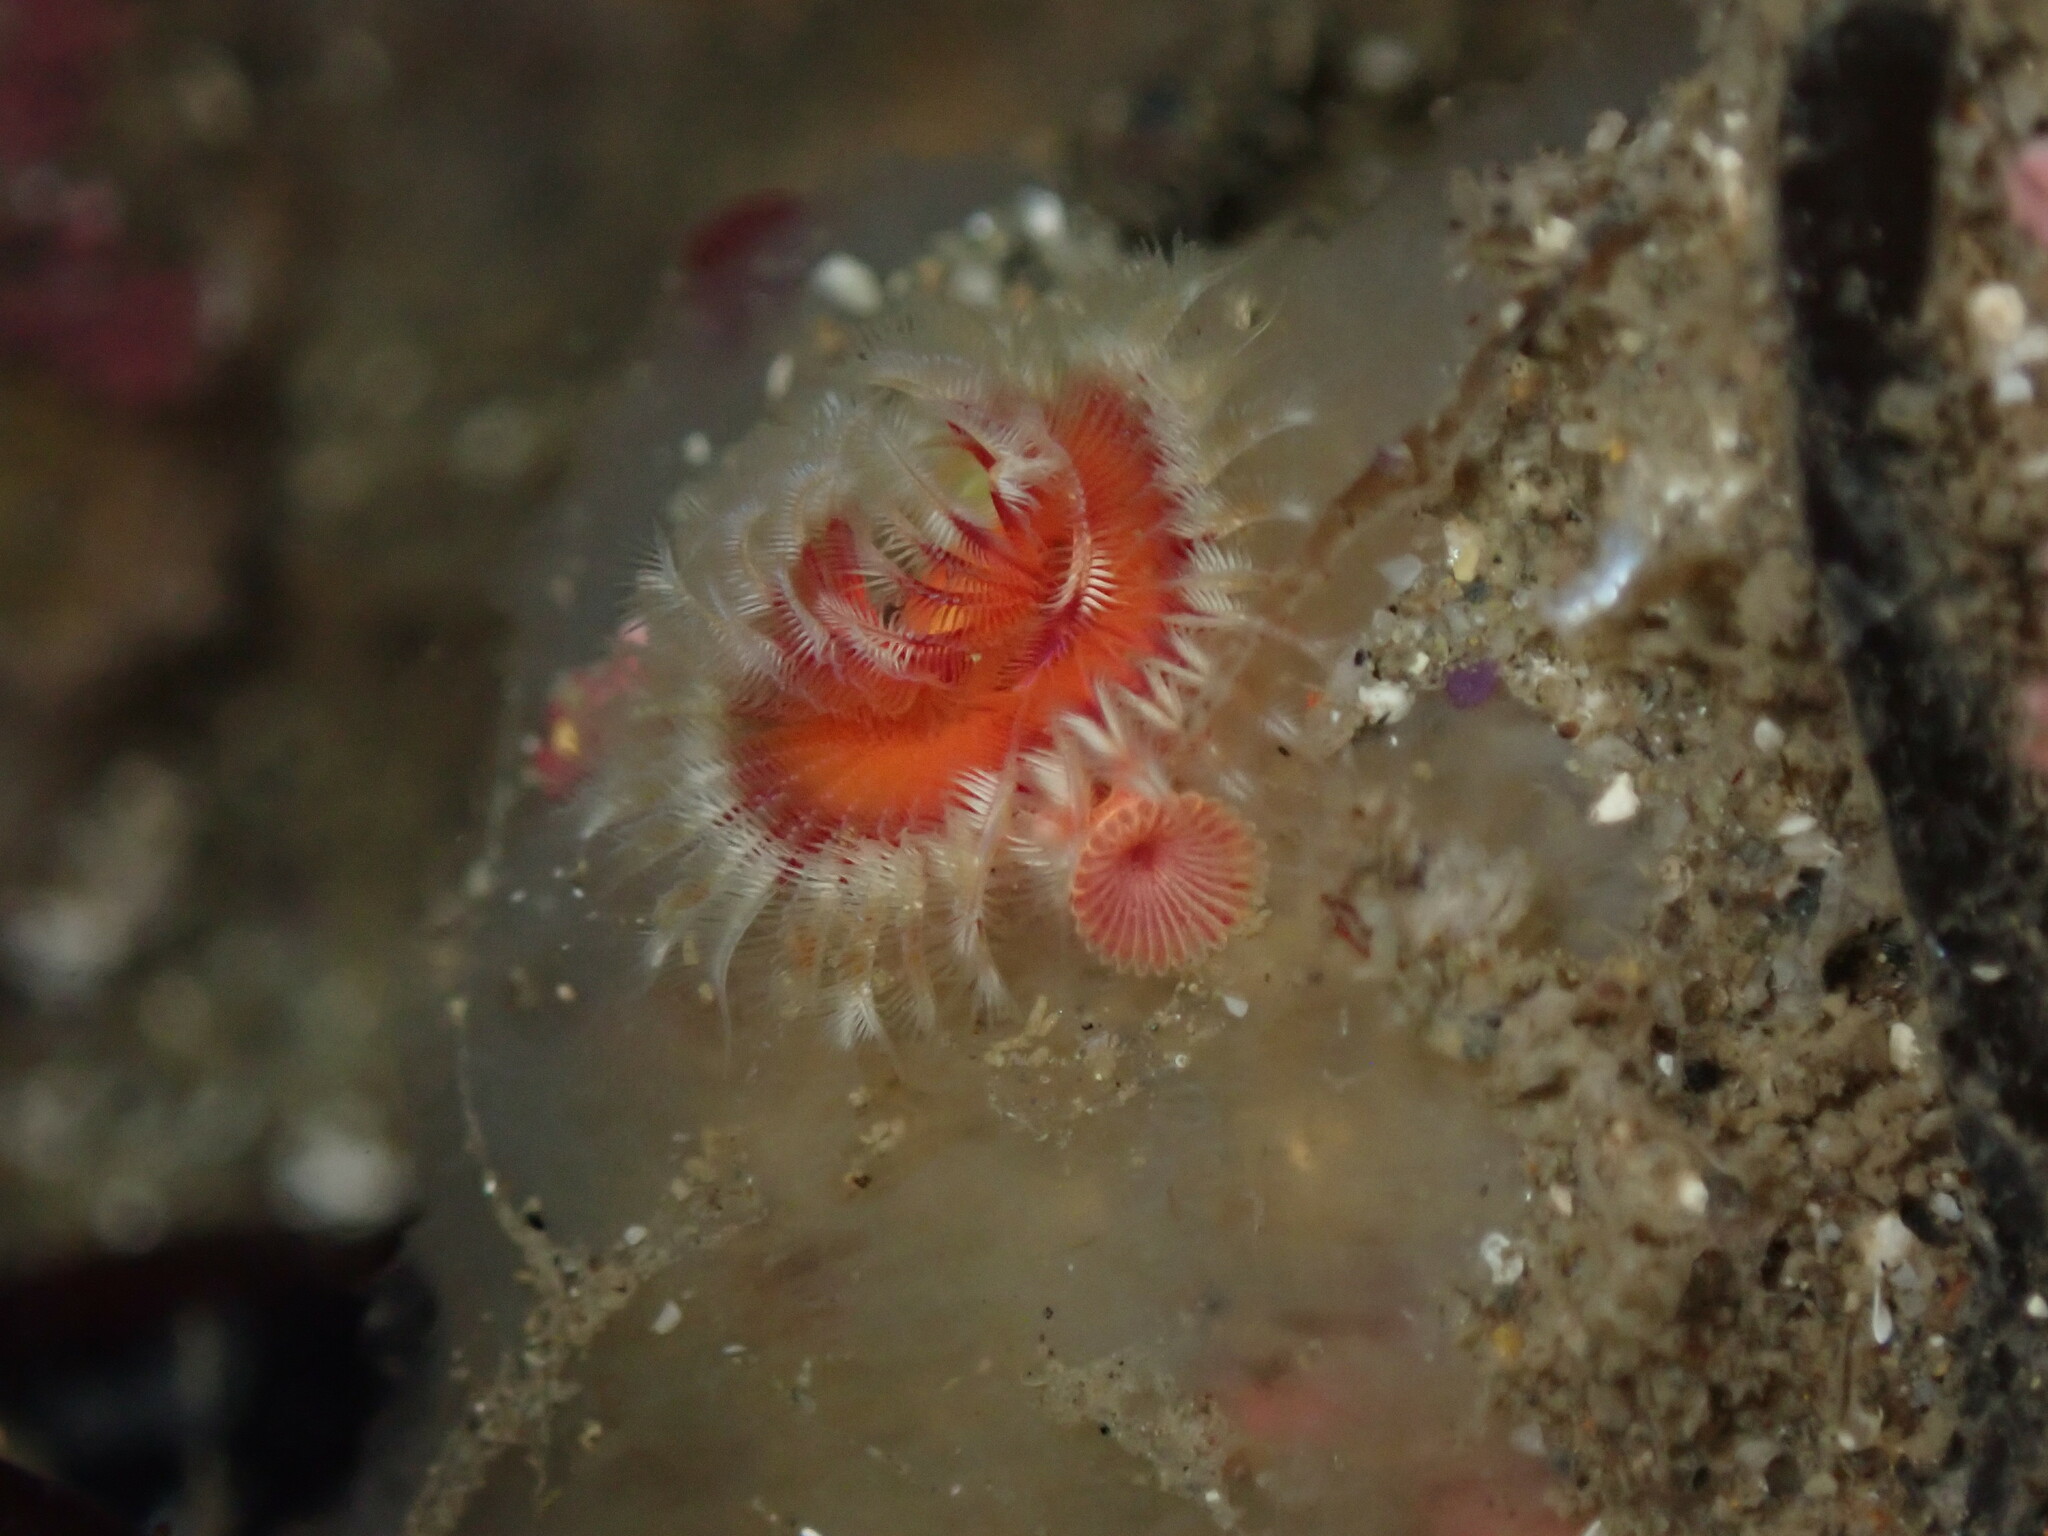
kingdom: Animalia
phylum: Annelida
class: Polychaeta
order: Sabellida
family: Serpulidae
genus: Serpula
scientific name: Serpula columbiana
